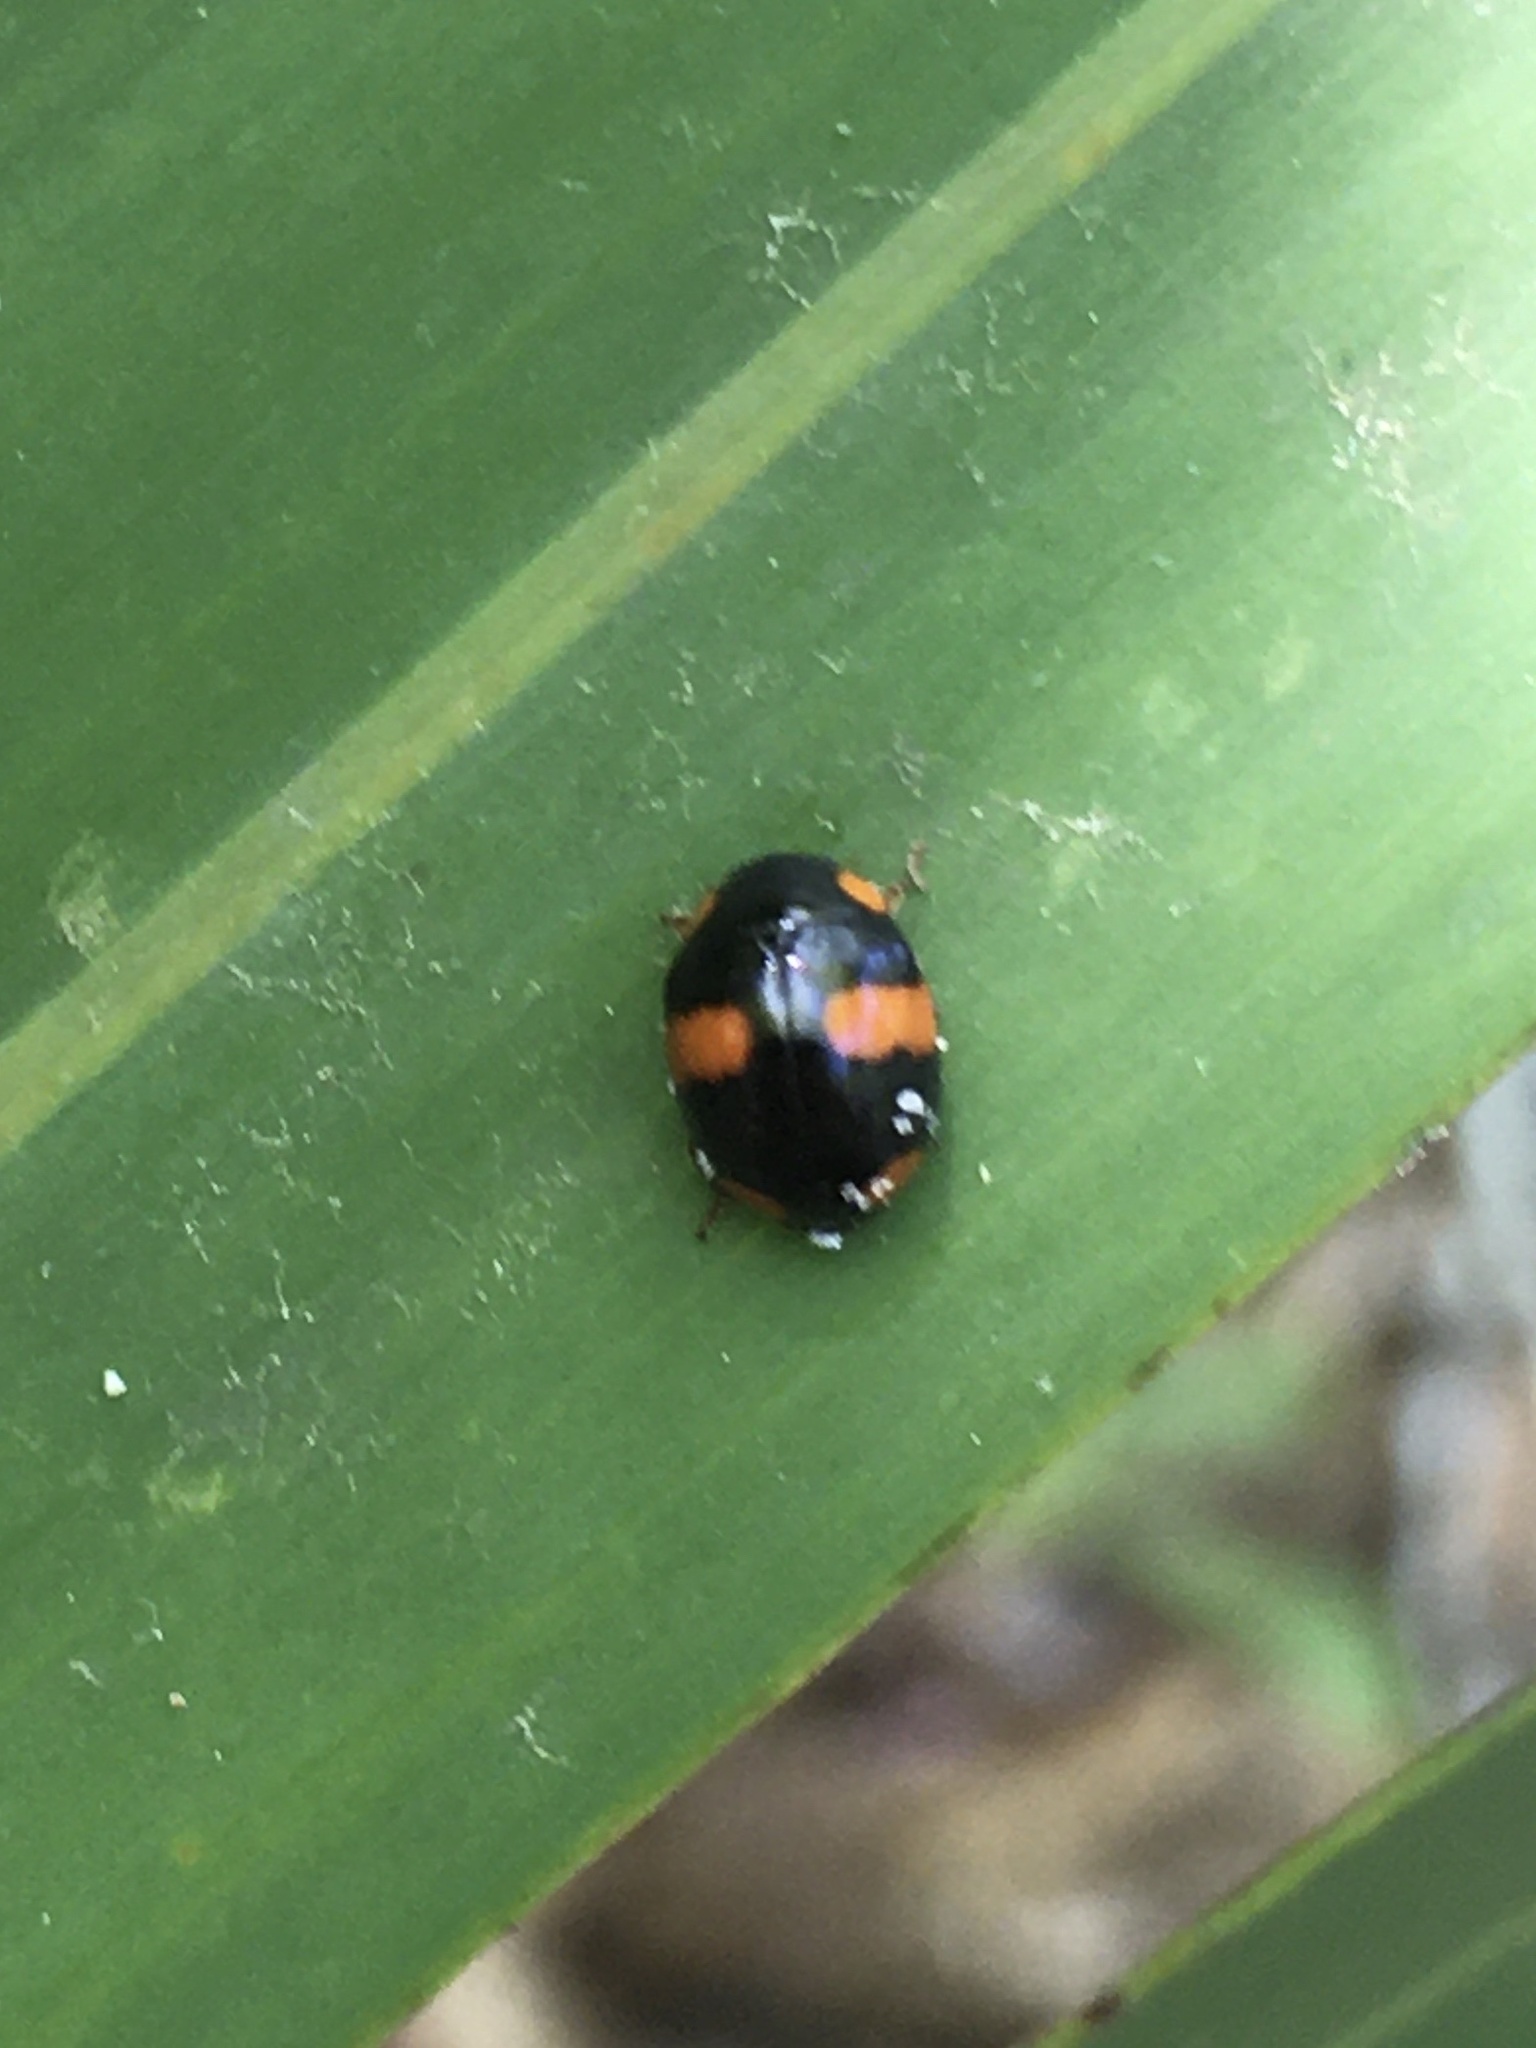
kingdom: Animalia
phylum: Arthropoda
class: Insecta
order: Coleoptera
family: Coccinellidae
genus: Brachiacantha
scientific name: Brachiacantha dentipes
